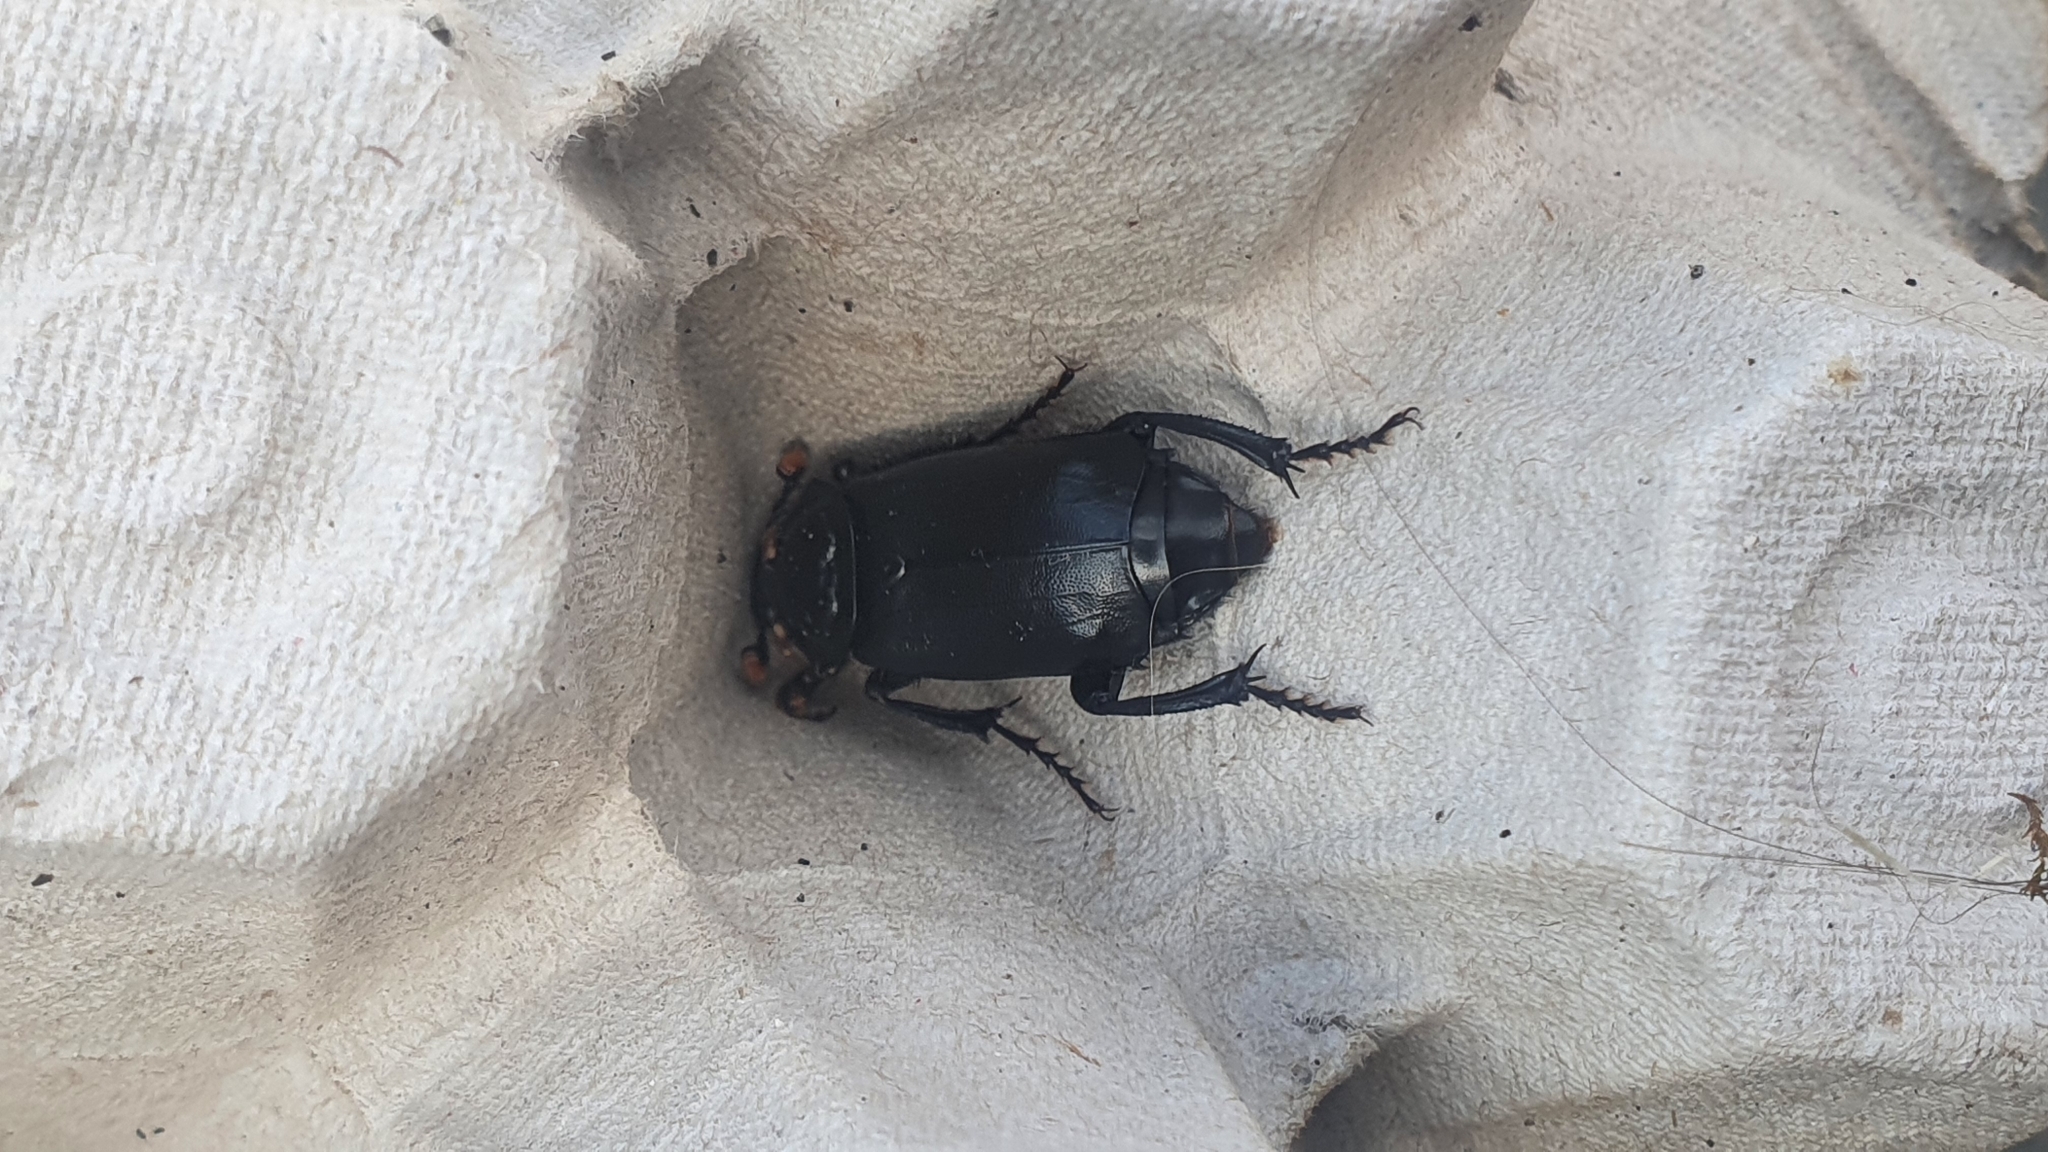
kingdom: Animalia
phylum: Arthropoda
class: Insecta
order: Coleoptera
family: Staphylinidae
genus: Nicrophorus
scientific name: Nicrophorus humator
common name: Black sexton beetle
